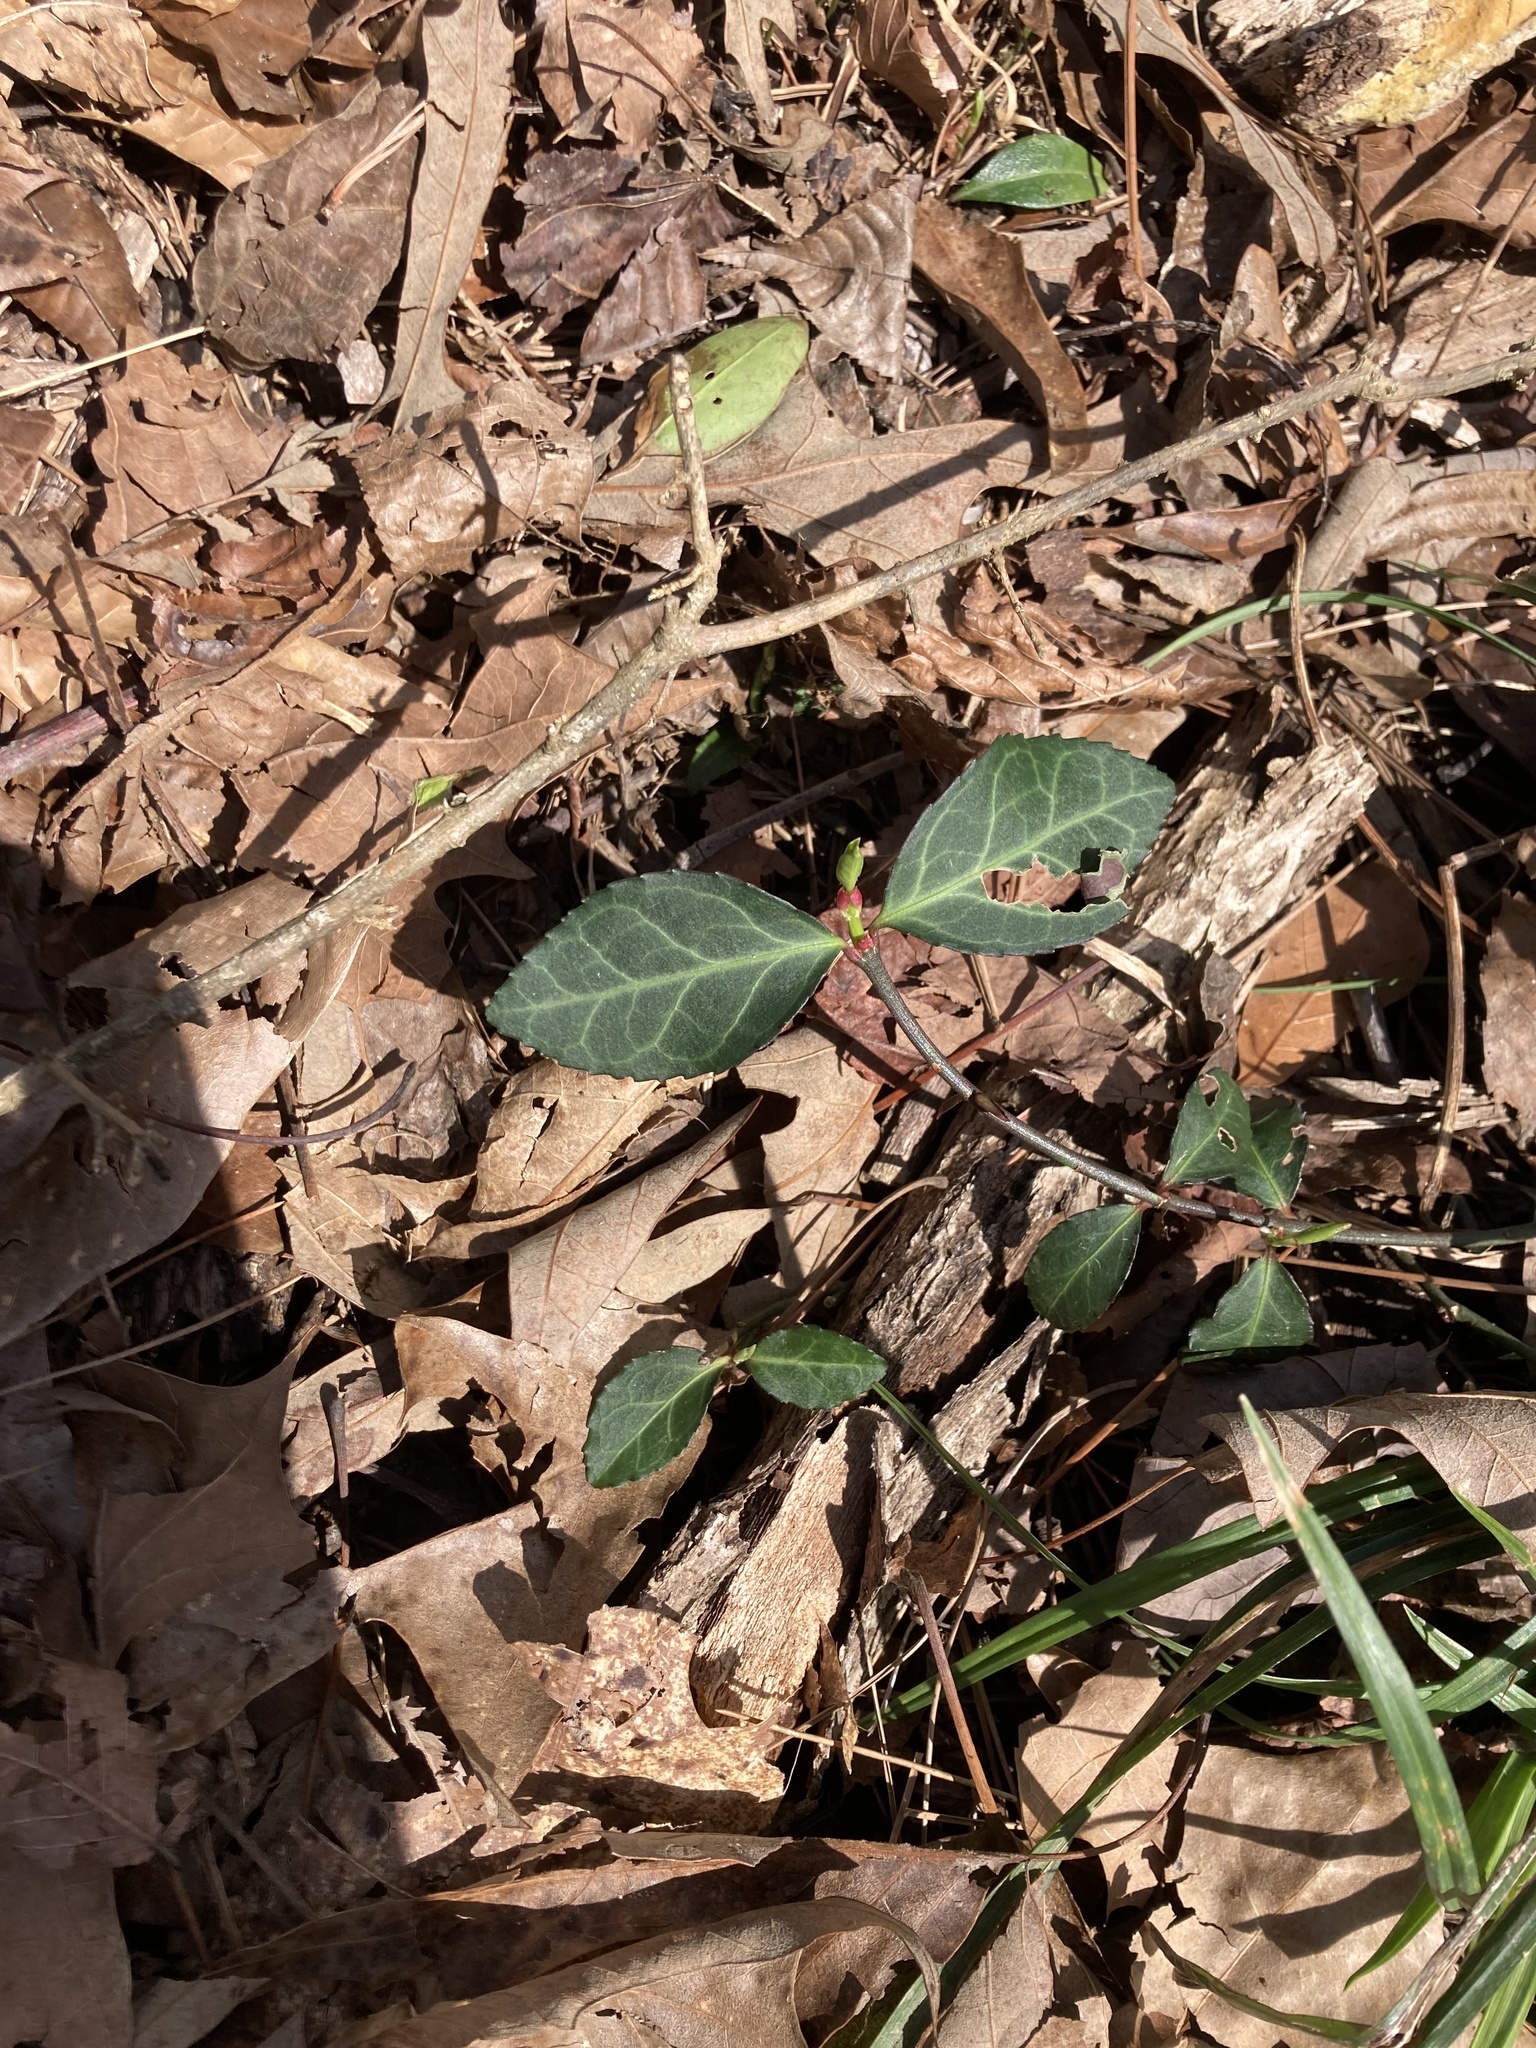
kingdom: Plantae
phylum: Tracheophyta
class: Magnoliopsida
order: Celastrales
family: Celastraceae
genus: Euonymus
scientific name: Euonymus fortunei
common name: Climbing euonymus
